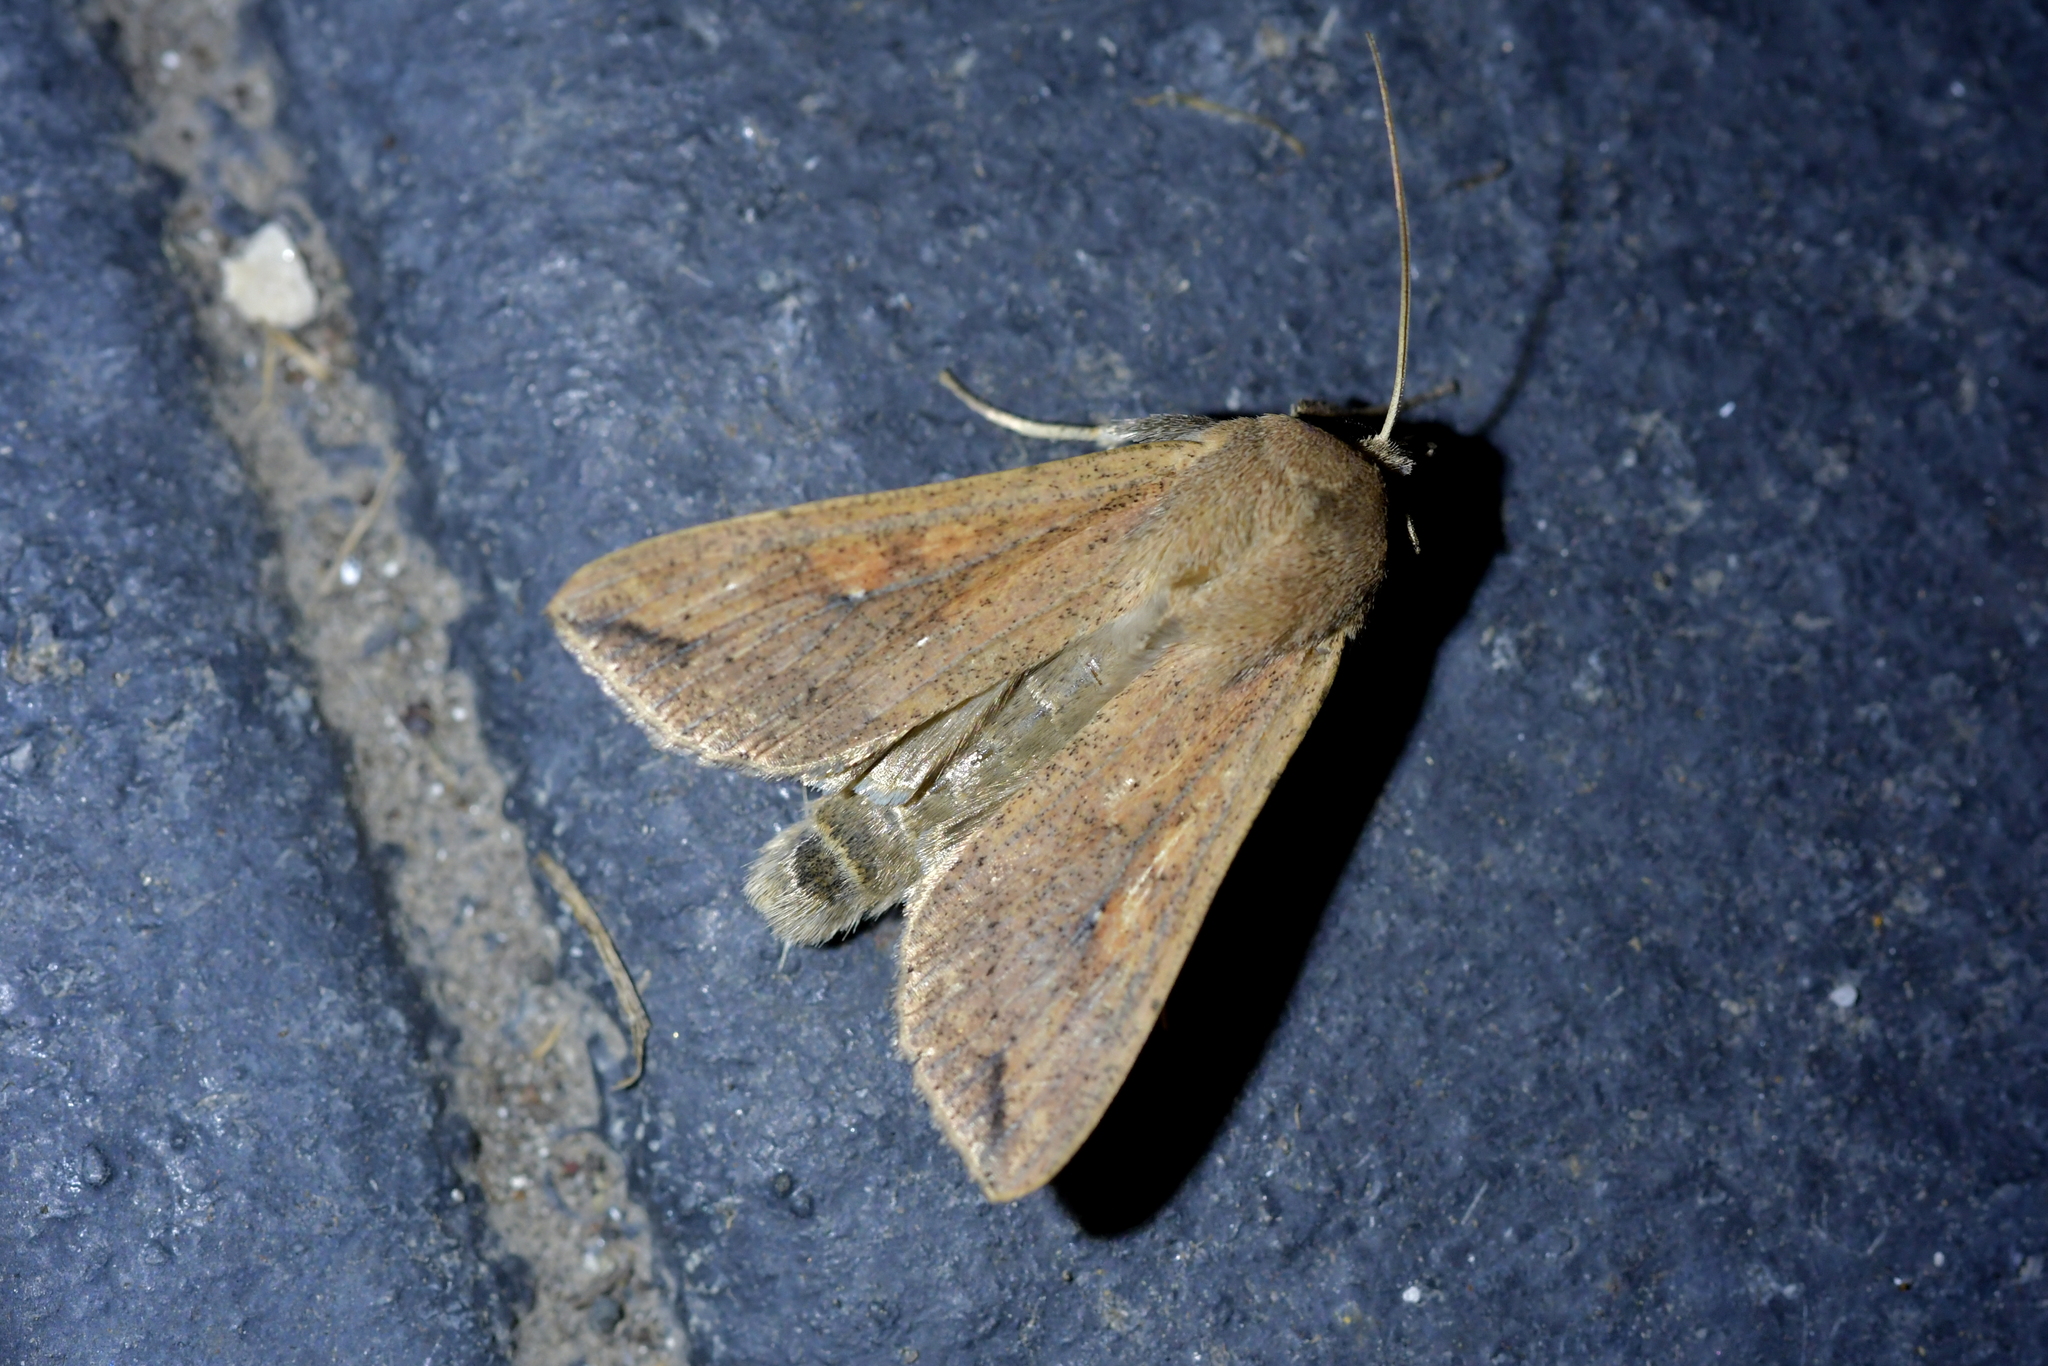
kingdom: Animalia
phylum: Arthropoda
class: Insecta
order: Lepidoptera
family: Noctuidae
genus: Mythimna
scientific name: Mythimna separata
